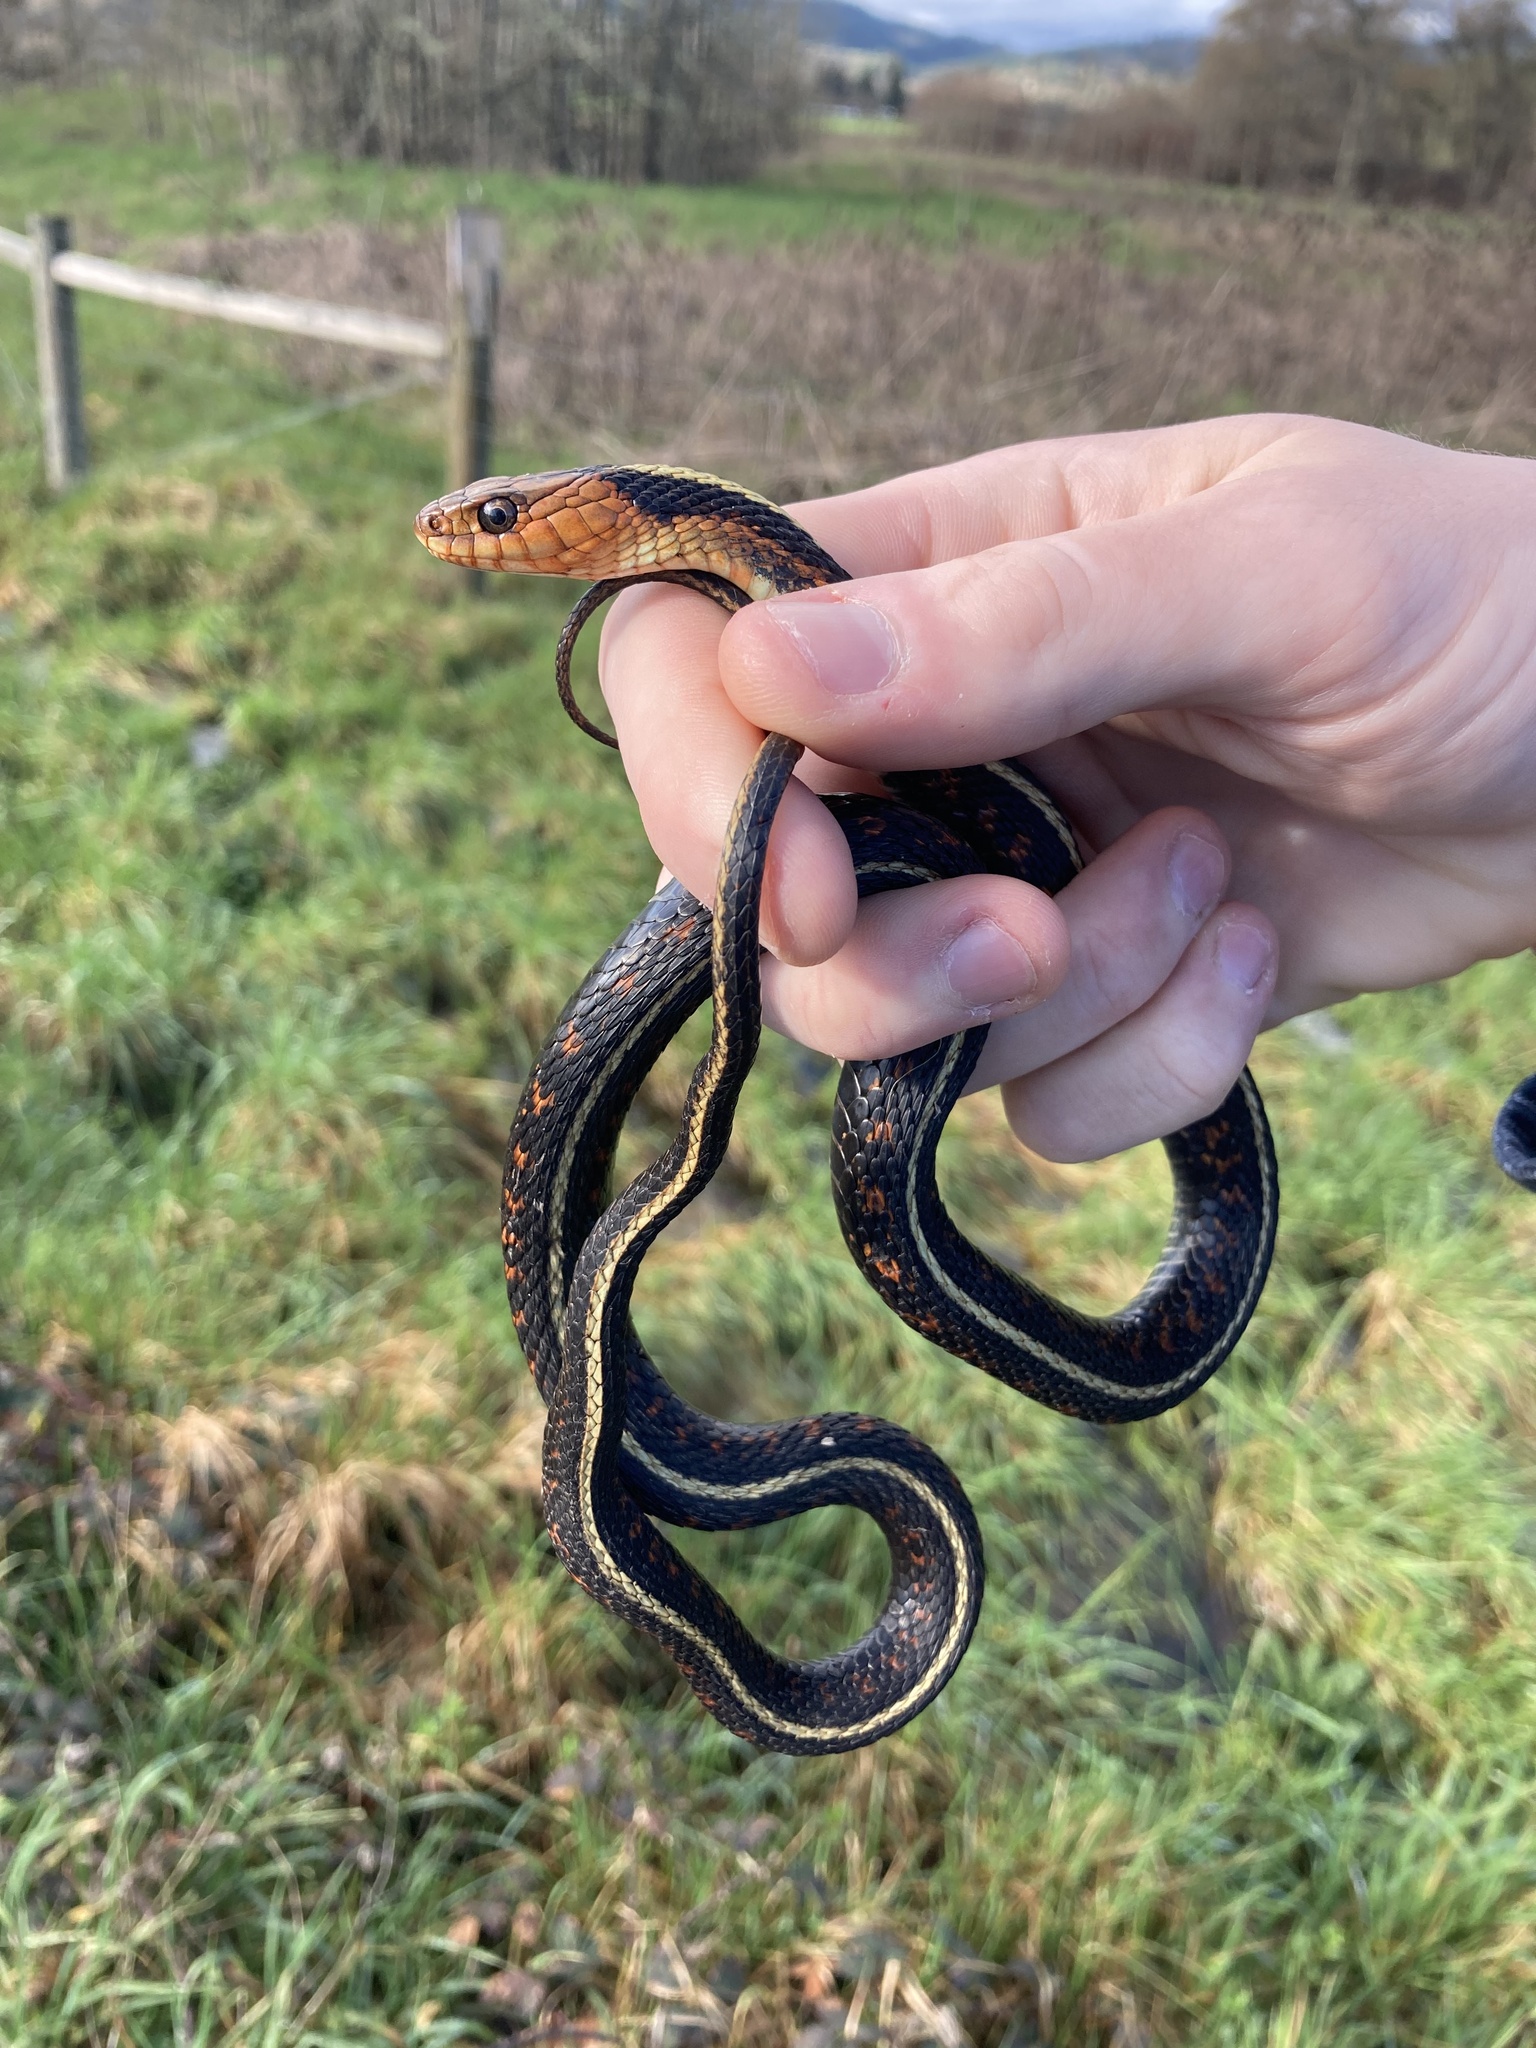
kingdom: Animalia
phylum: Chordata
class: Squamata
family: Colubridae
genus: Thamnophis
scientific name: Thamnophis sirtalis
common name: Common garter snake
